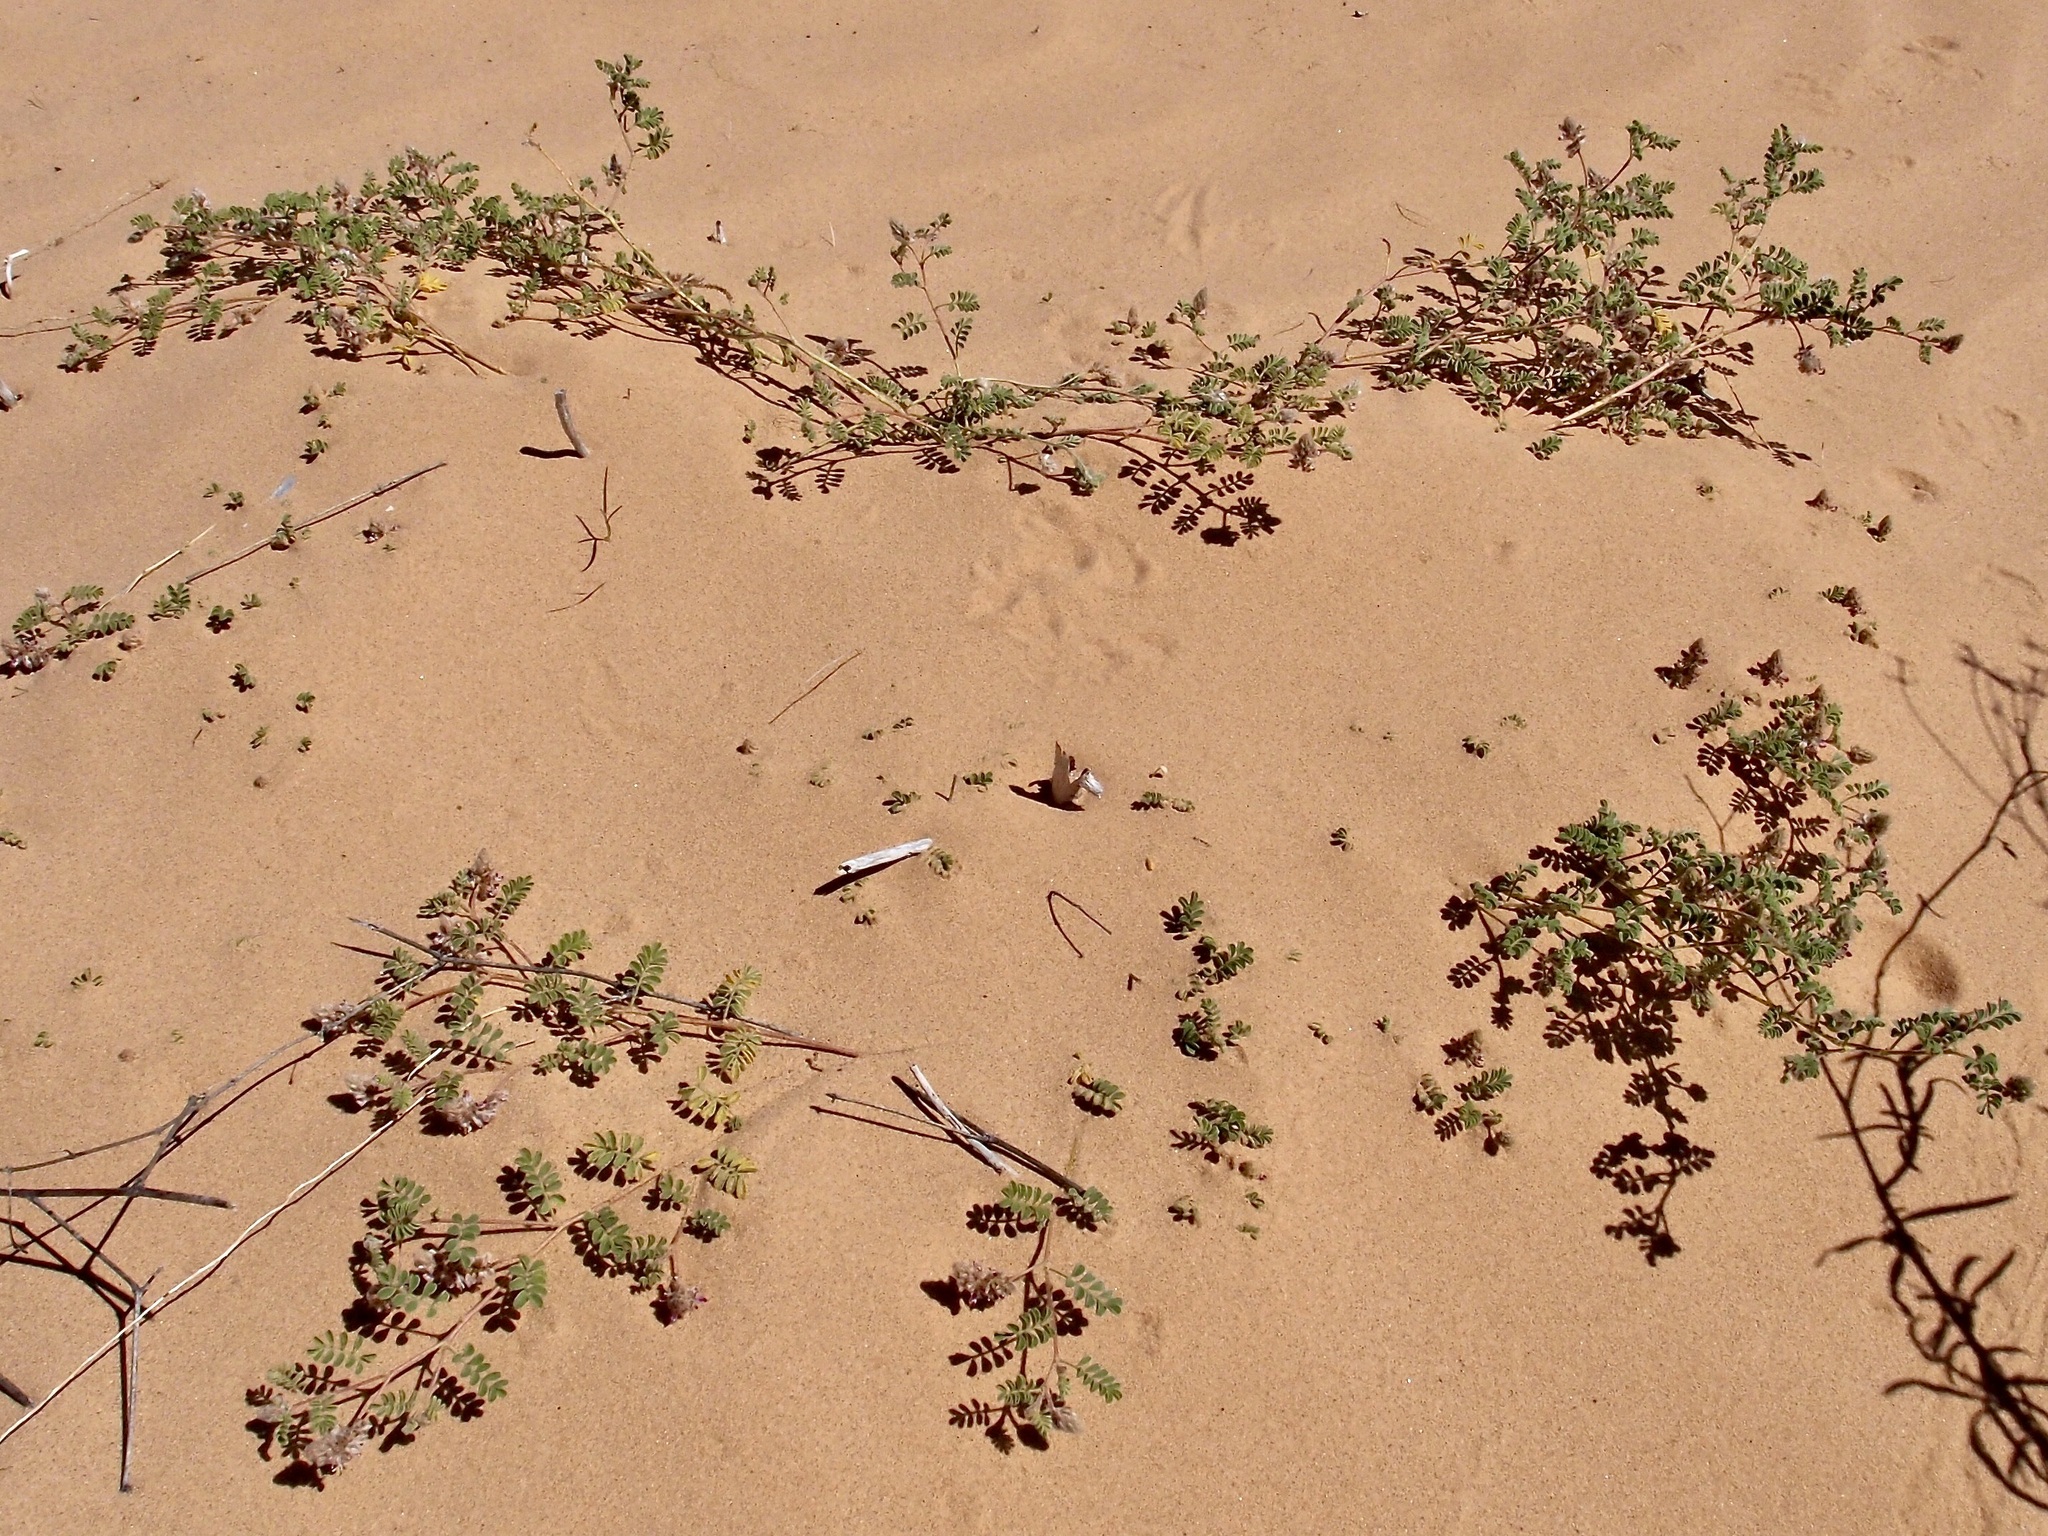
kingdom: Plantae
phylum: Tracheophyta
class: Magnoliopsida
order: Fabales
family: Fabaceae
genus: Dalea
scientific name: Dalea mollis
